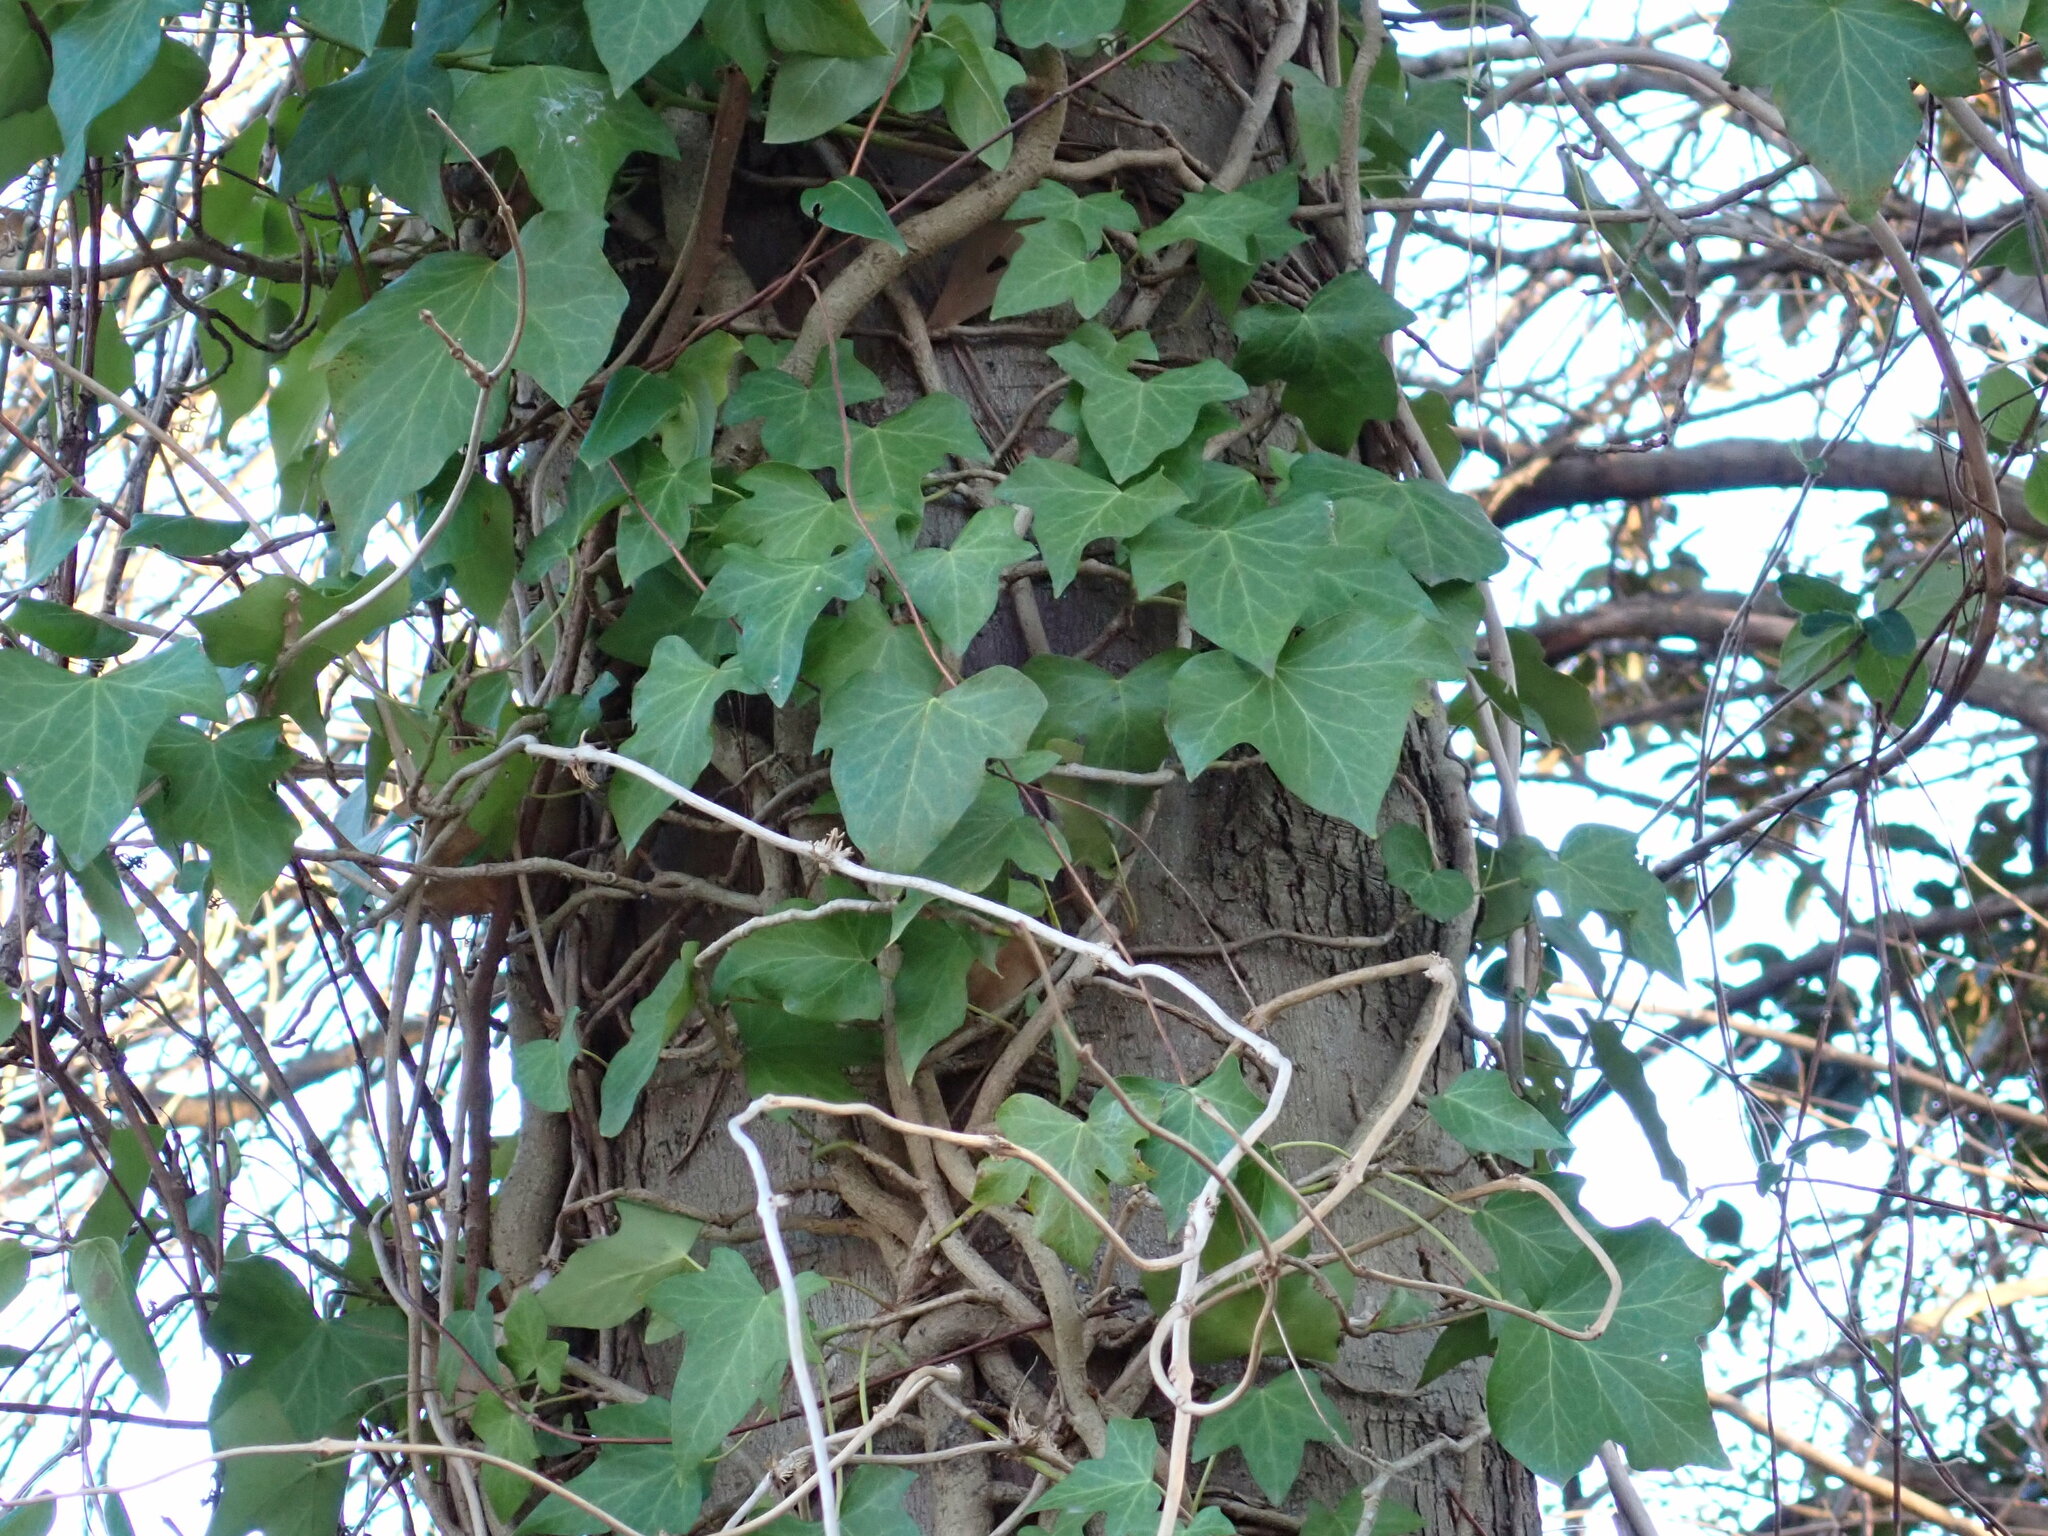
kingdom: Plantae
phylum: Tracheophyta
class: Magnoliopsida
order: Apiales
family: Araliaceae
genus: Hedera
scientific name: Hedera helix
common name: Ivy
